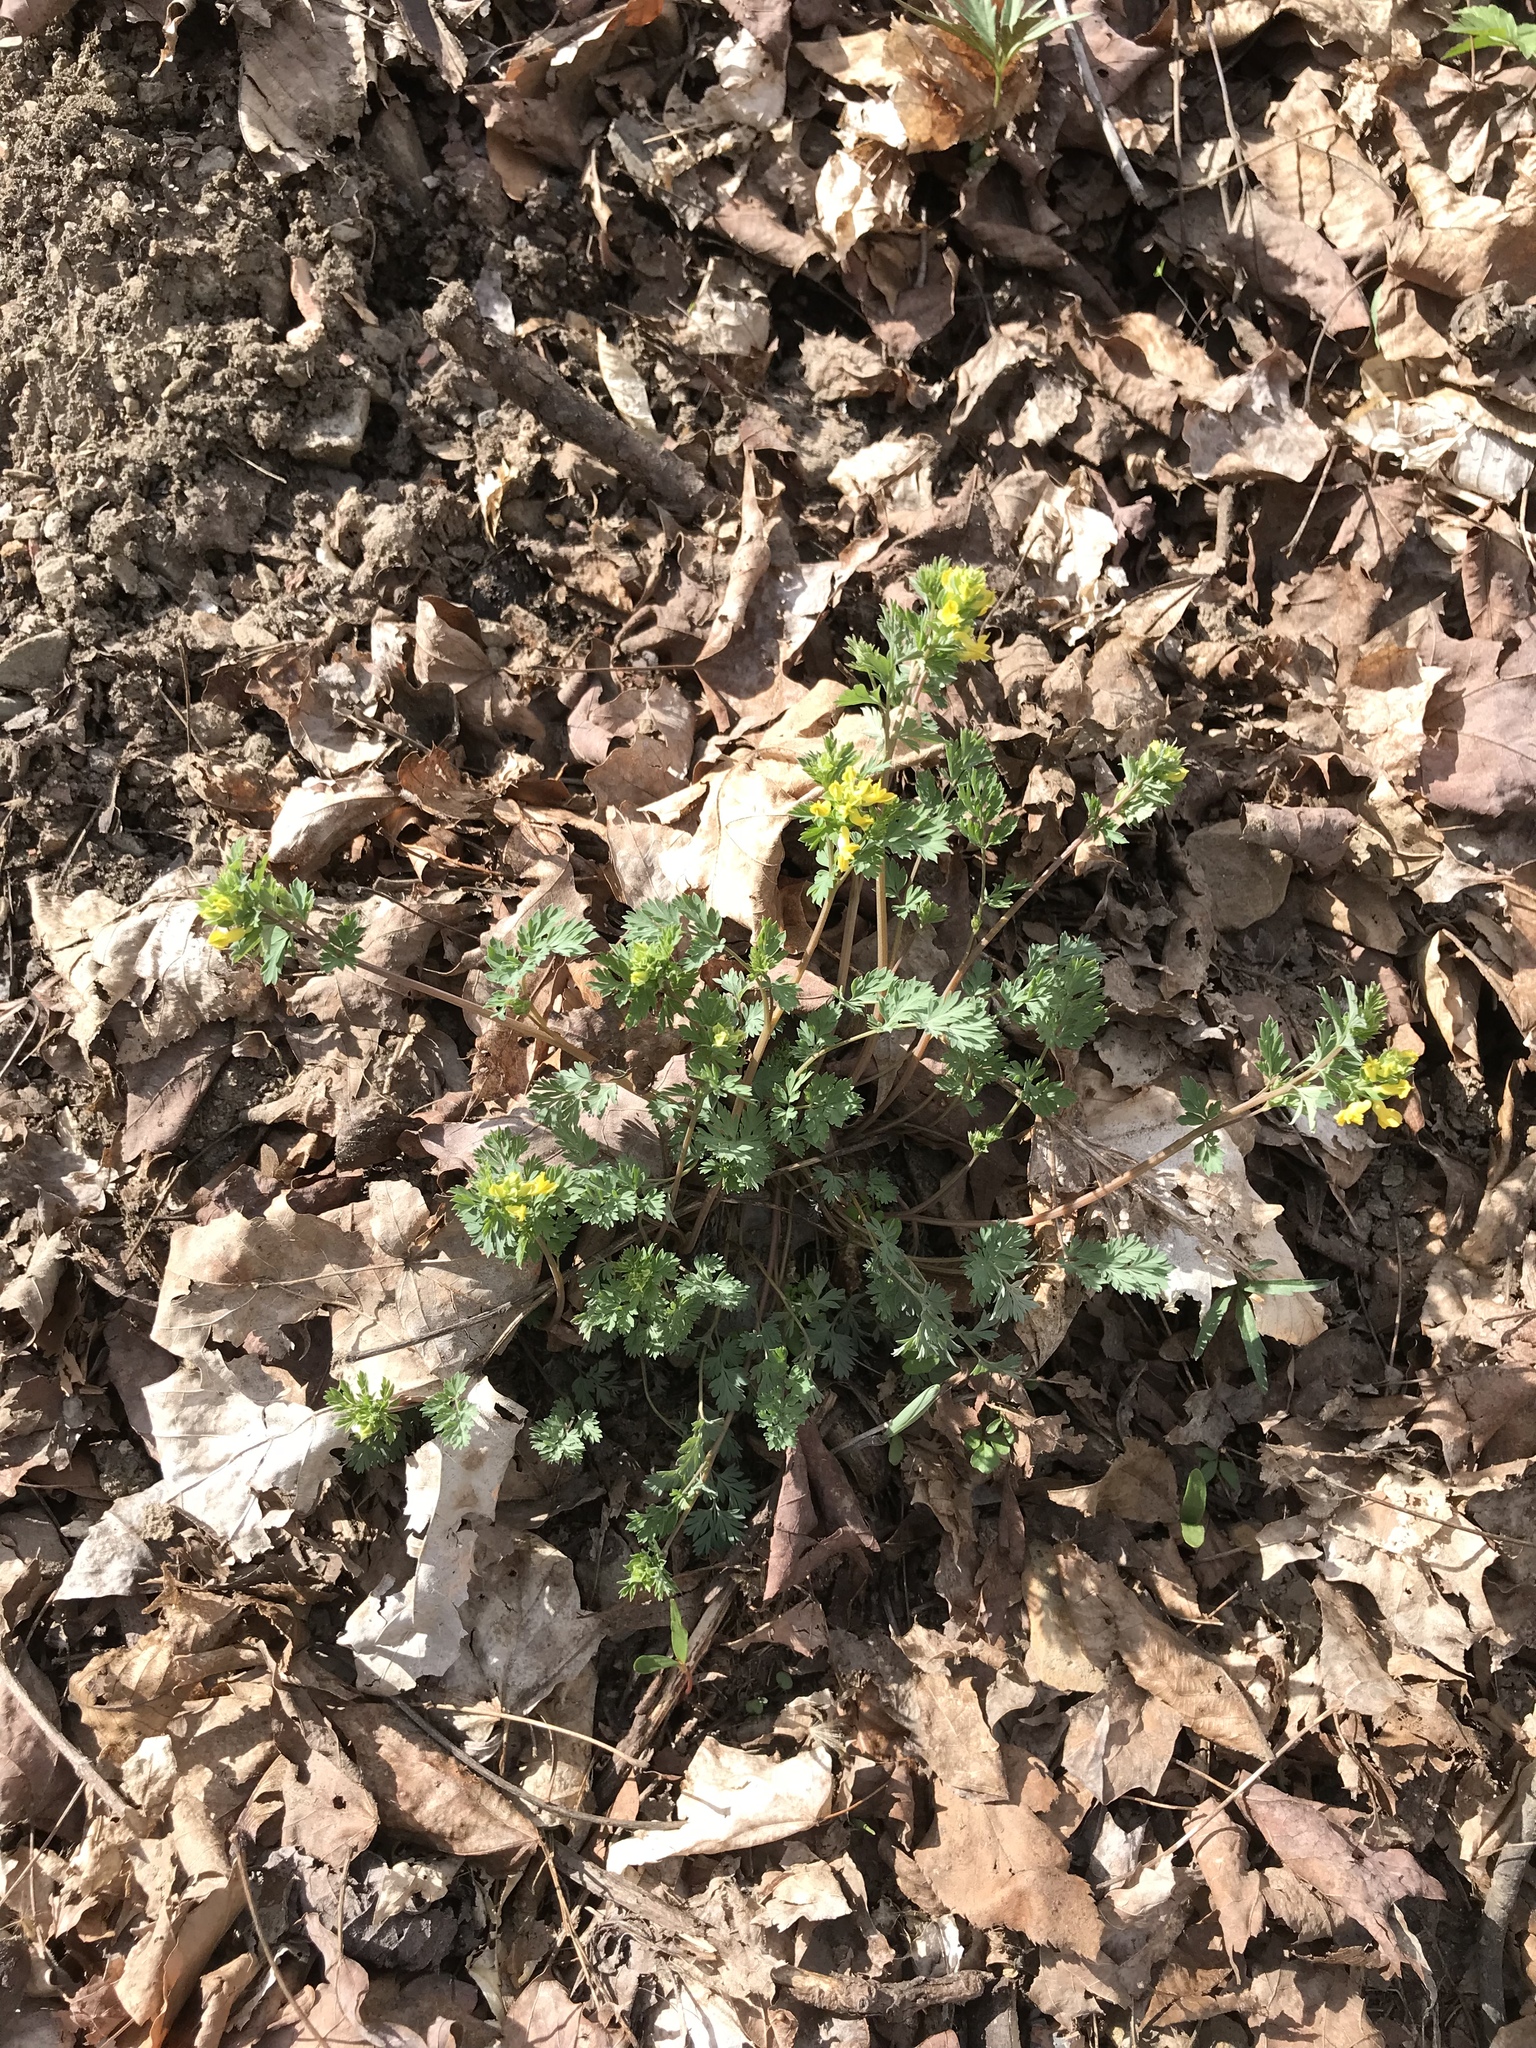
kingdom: Plantae
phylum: Tracheophyta
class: Magnoliopsida
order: Ranunculales
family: Papaveraceae
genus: Corydalis
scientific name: Corydalis flavula
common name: Yellow corydalis
